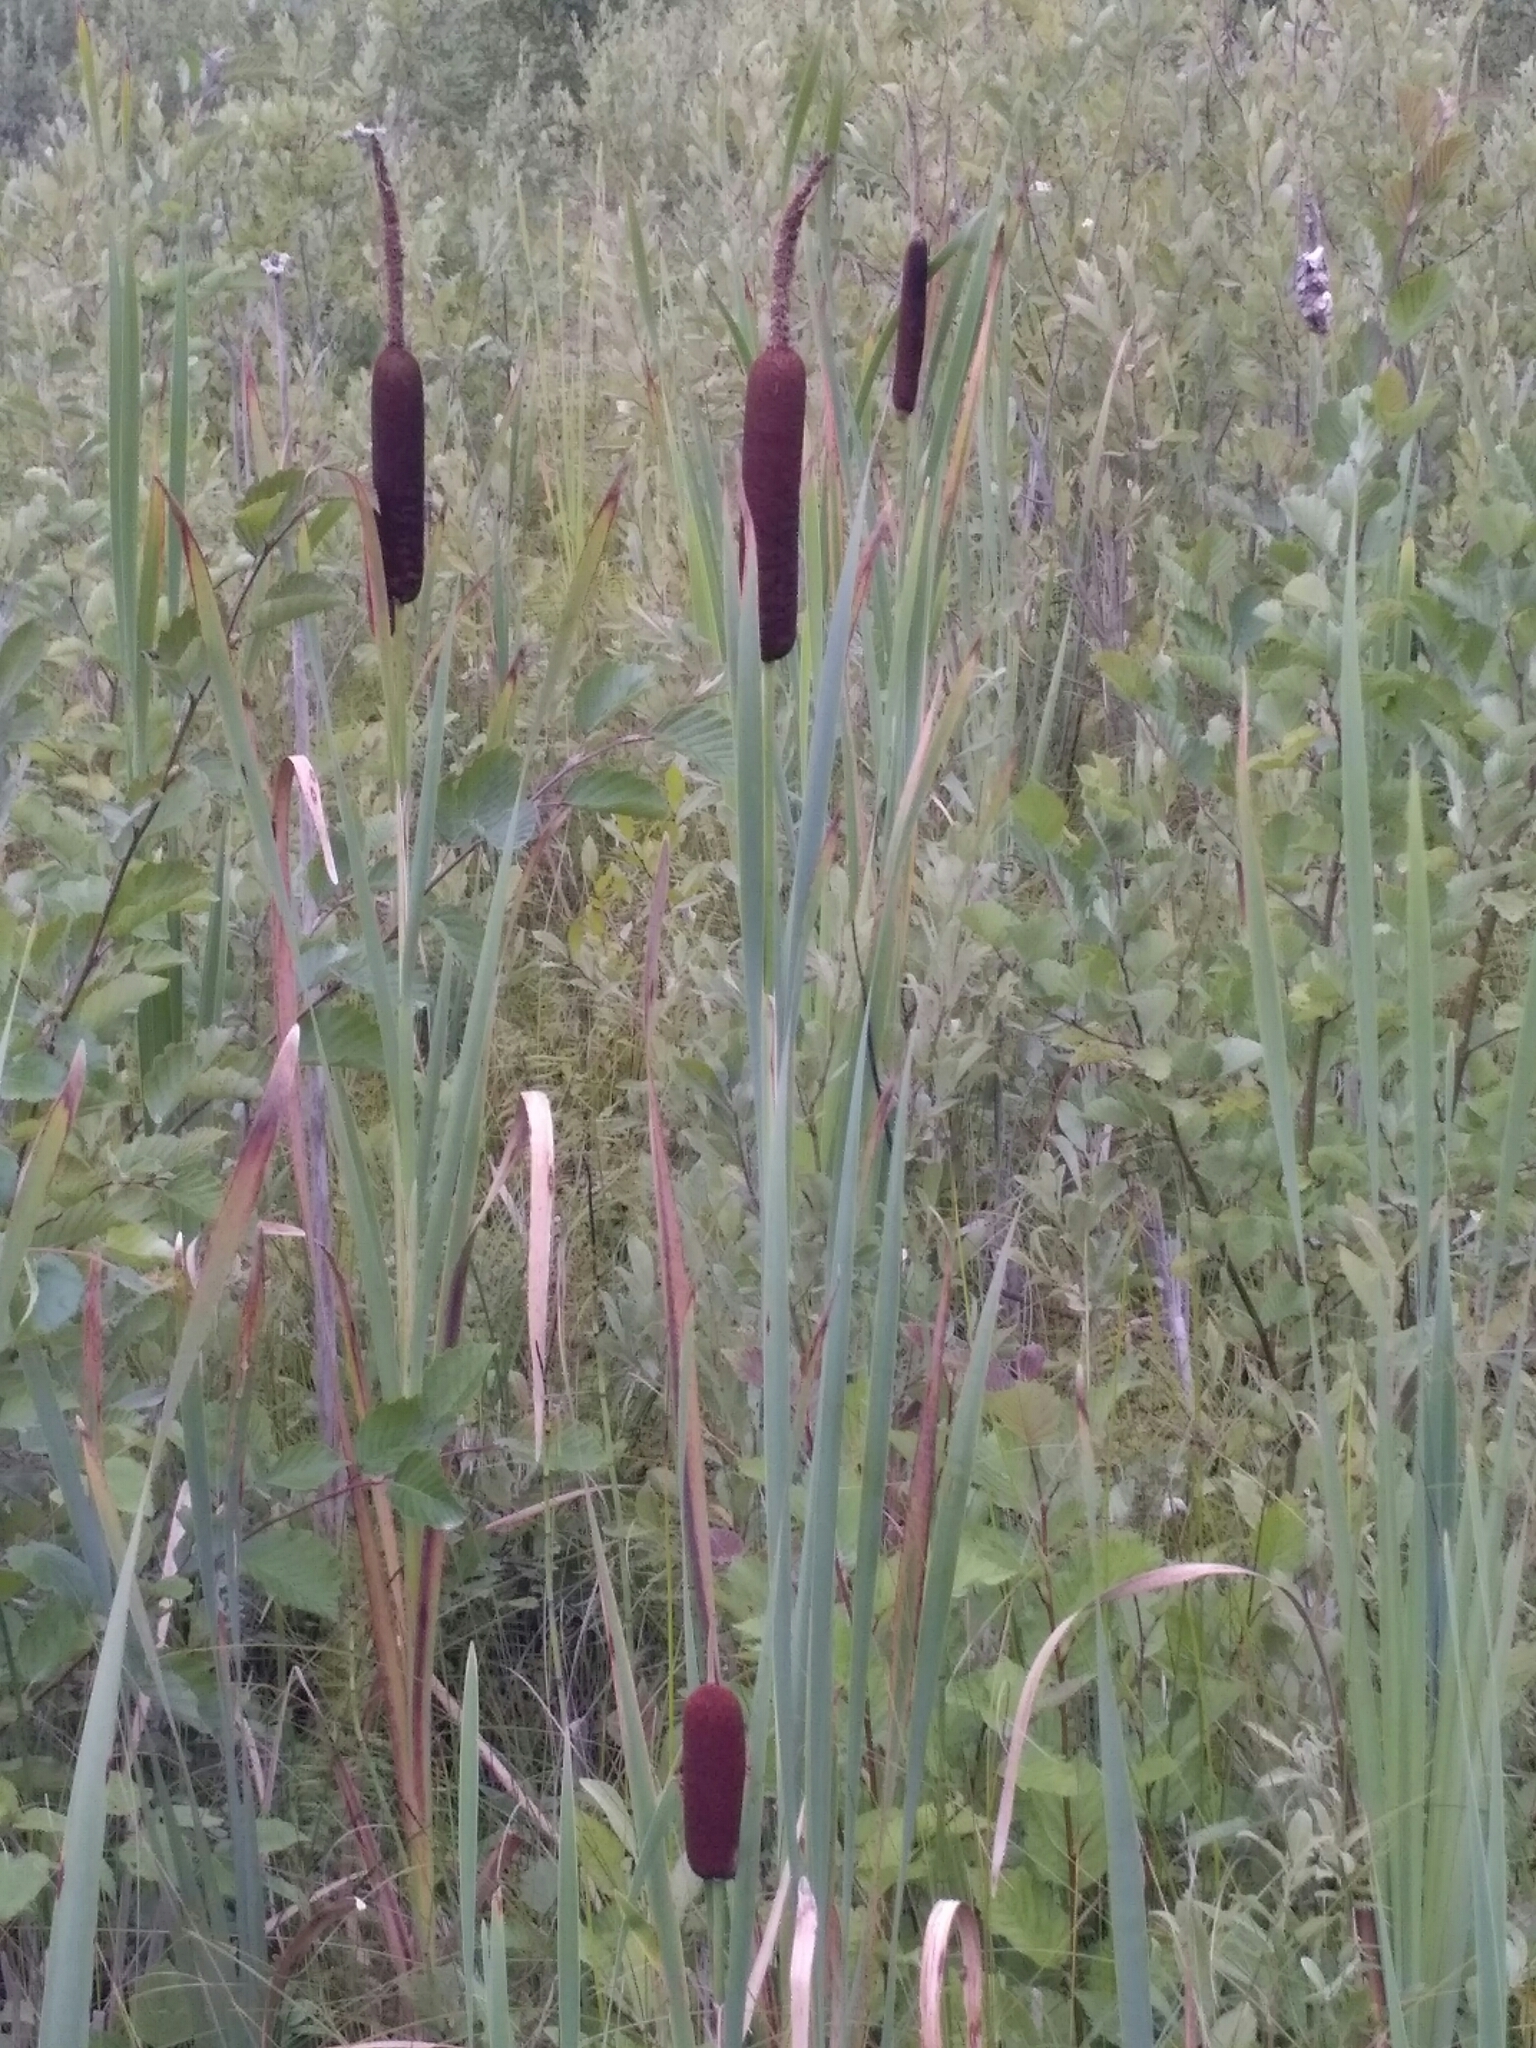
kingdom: Plantae
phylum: Tracheophyta
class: Liliopsida
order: Poales
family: Typhaceae
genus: Typha
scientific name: Typha latifolia
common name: Broadleaf cattail
